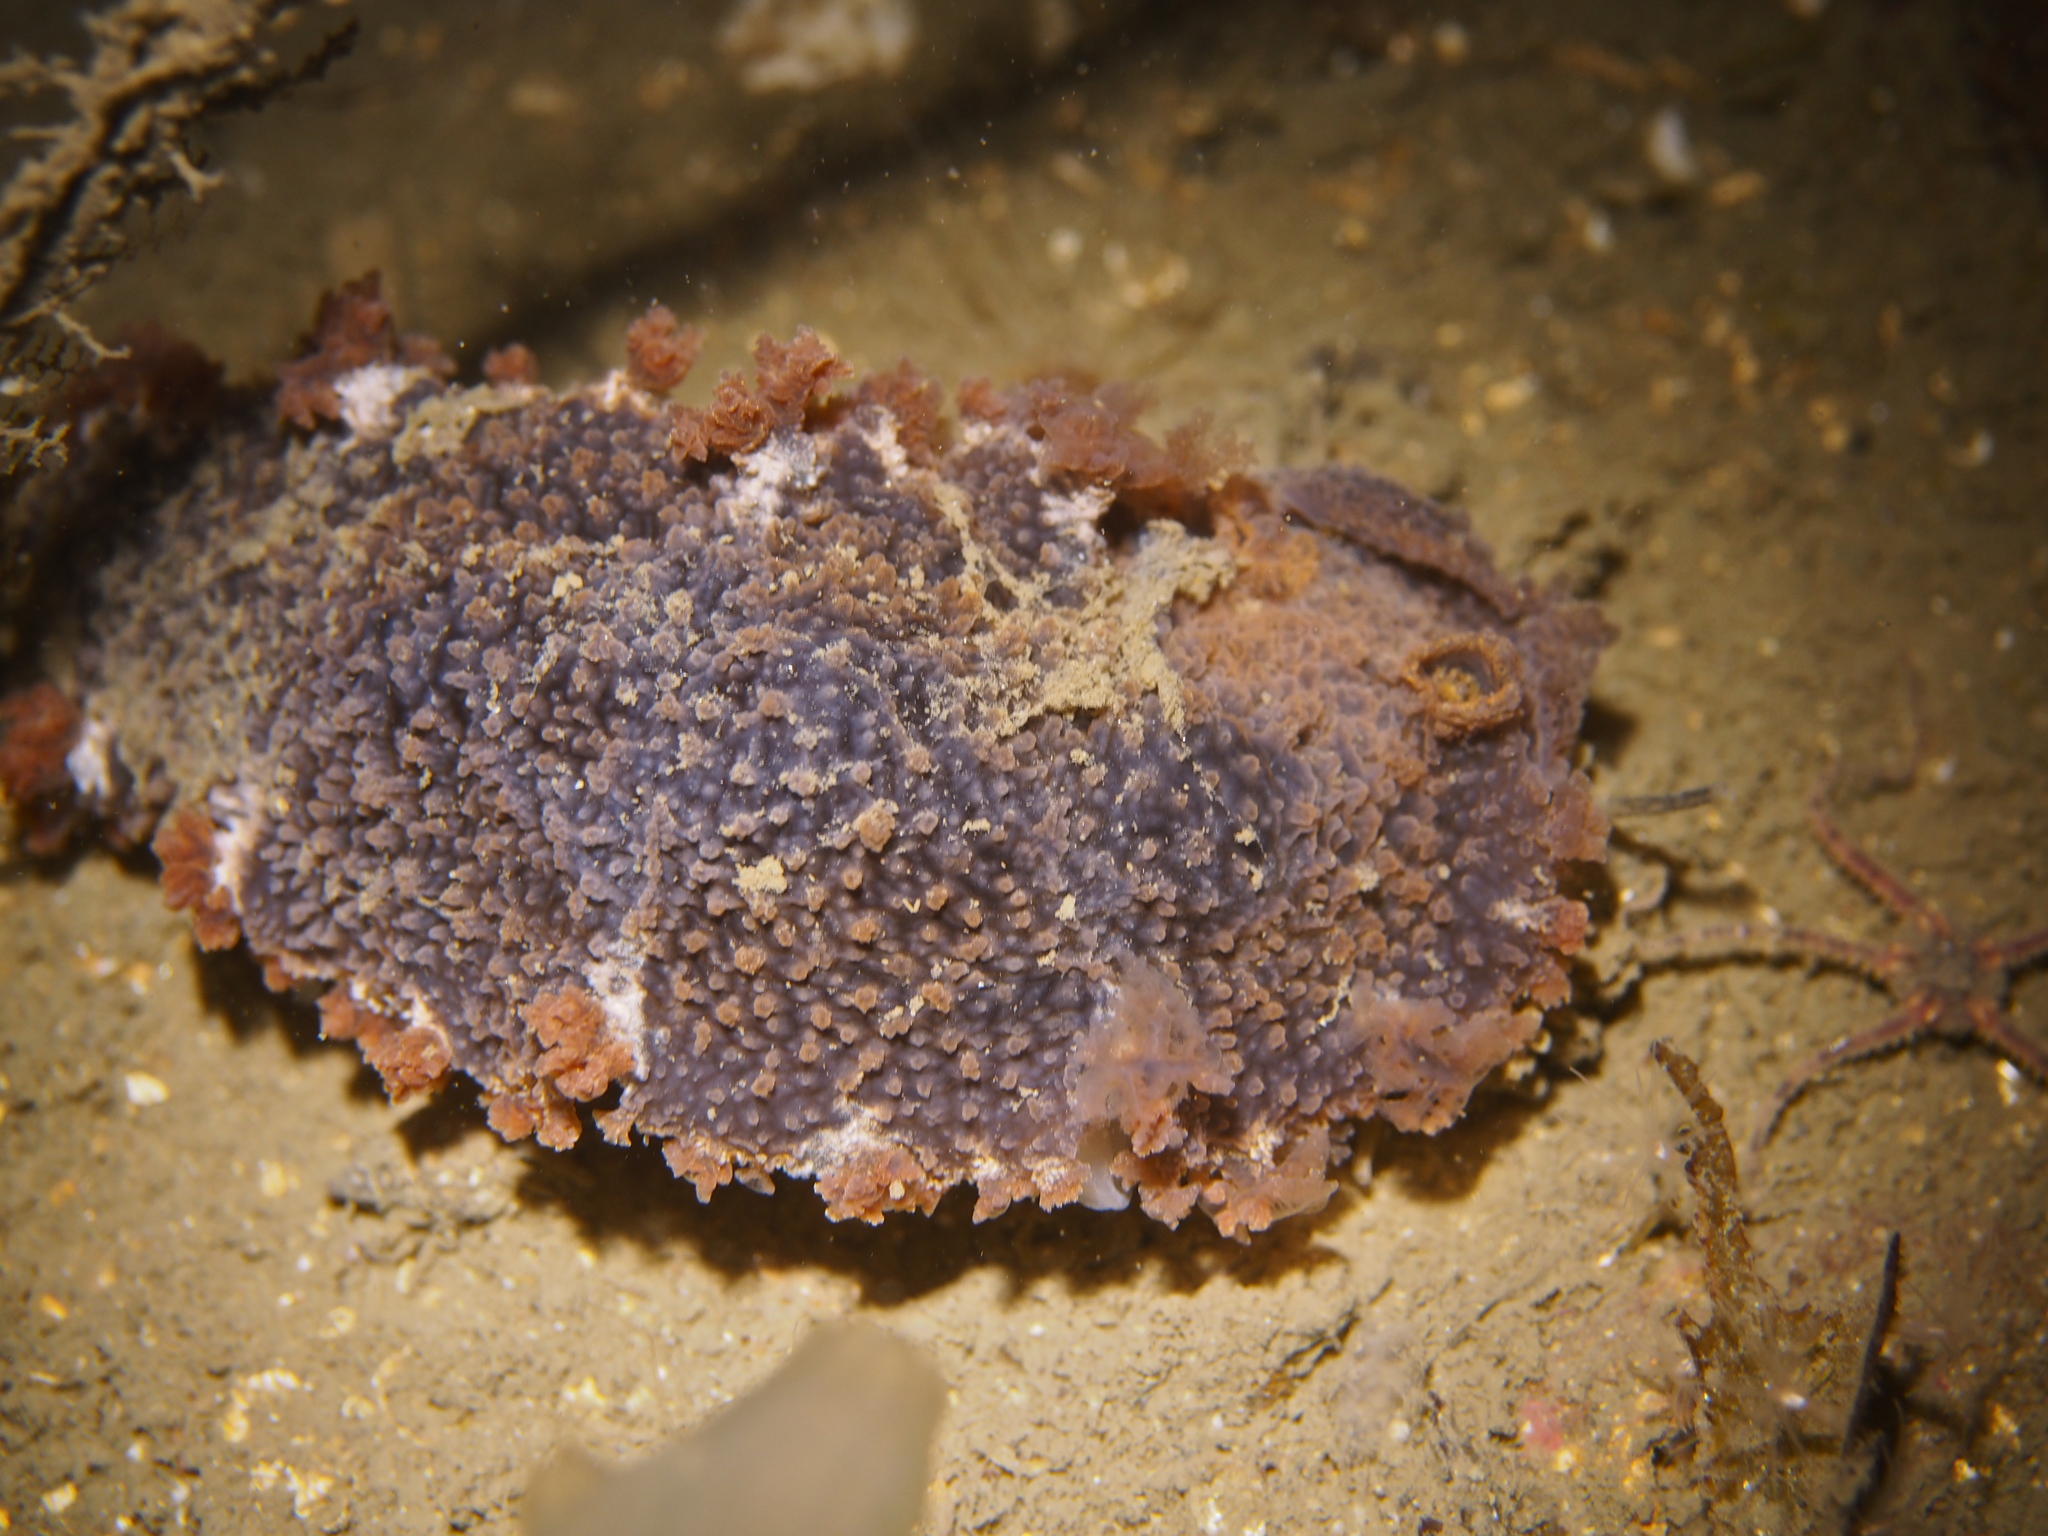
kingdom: Animalia
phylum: Mollusca
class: Gastropoda
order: Nudibranchia
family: Tritoniidae
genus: Tritonia
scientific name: Tritonia hombergii
